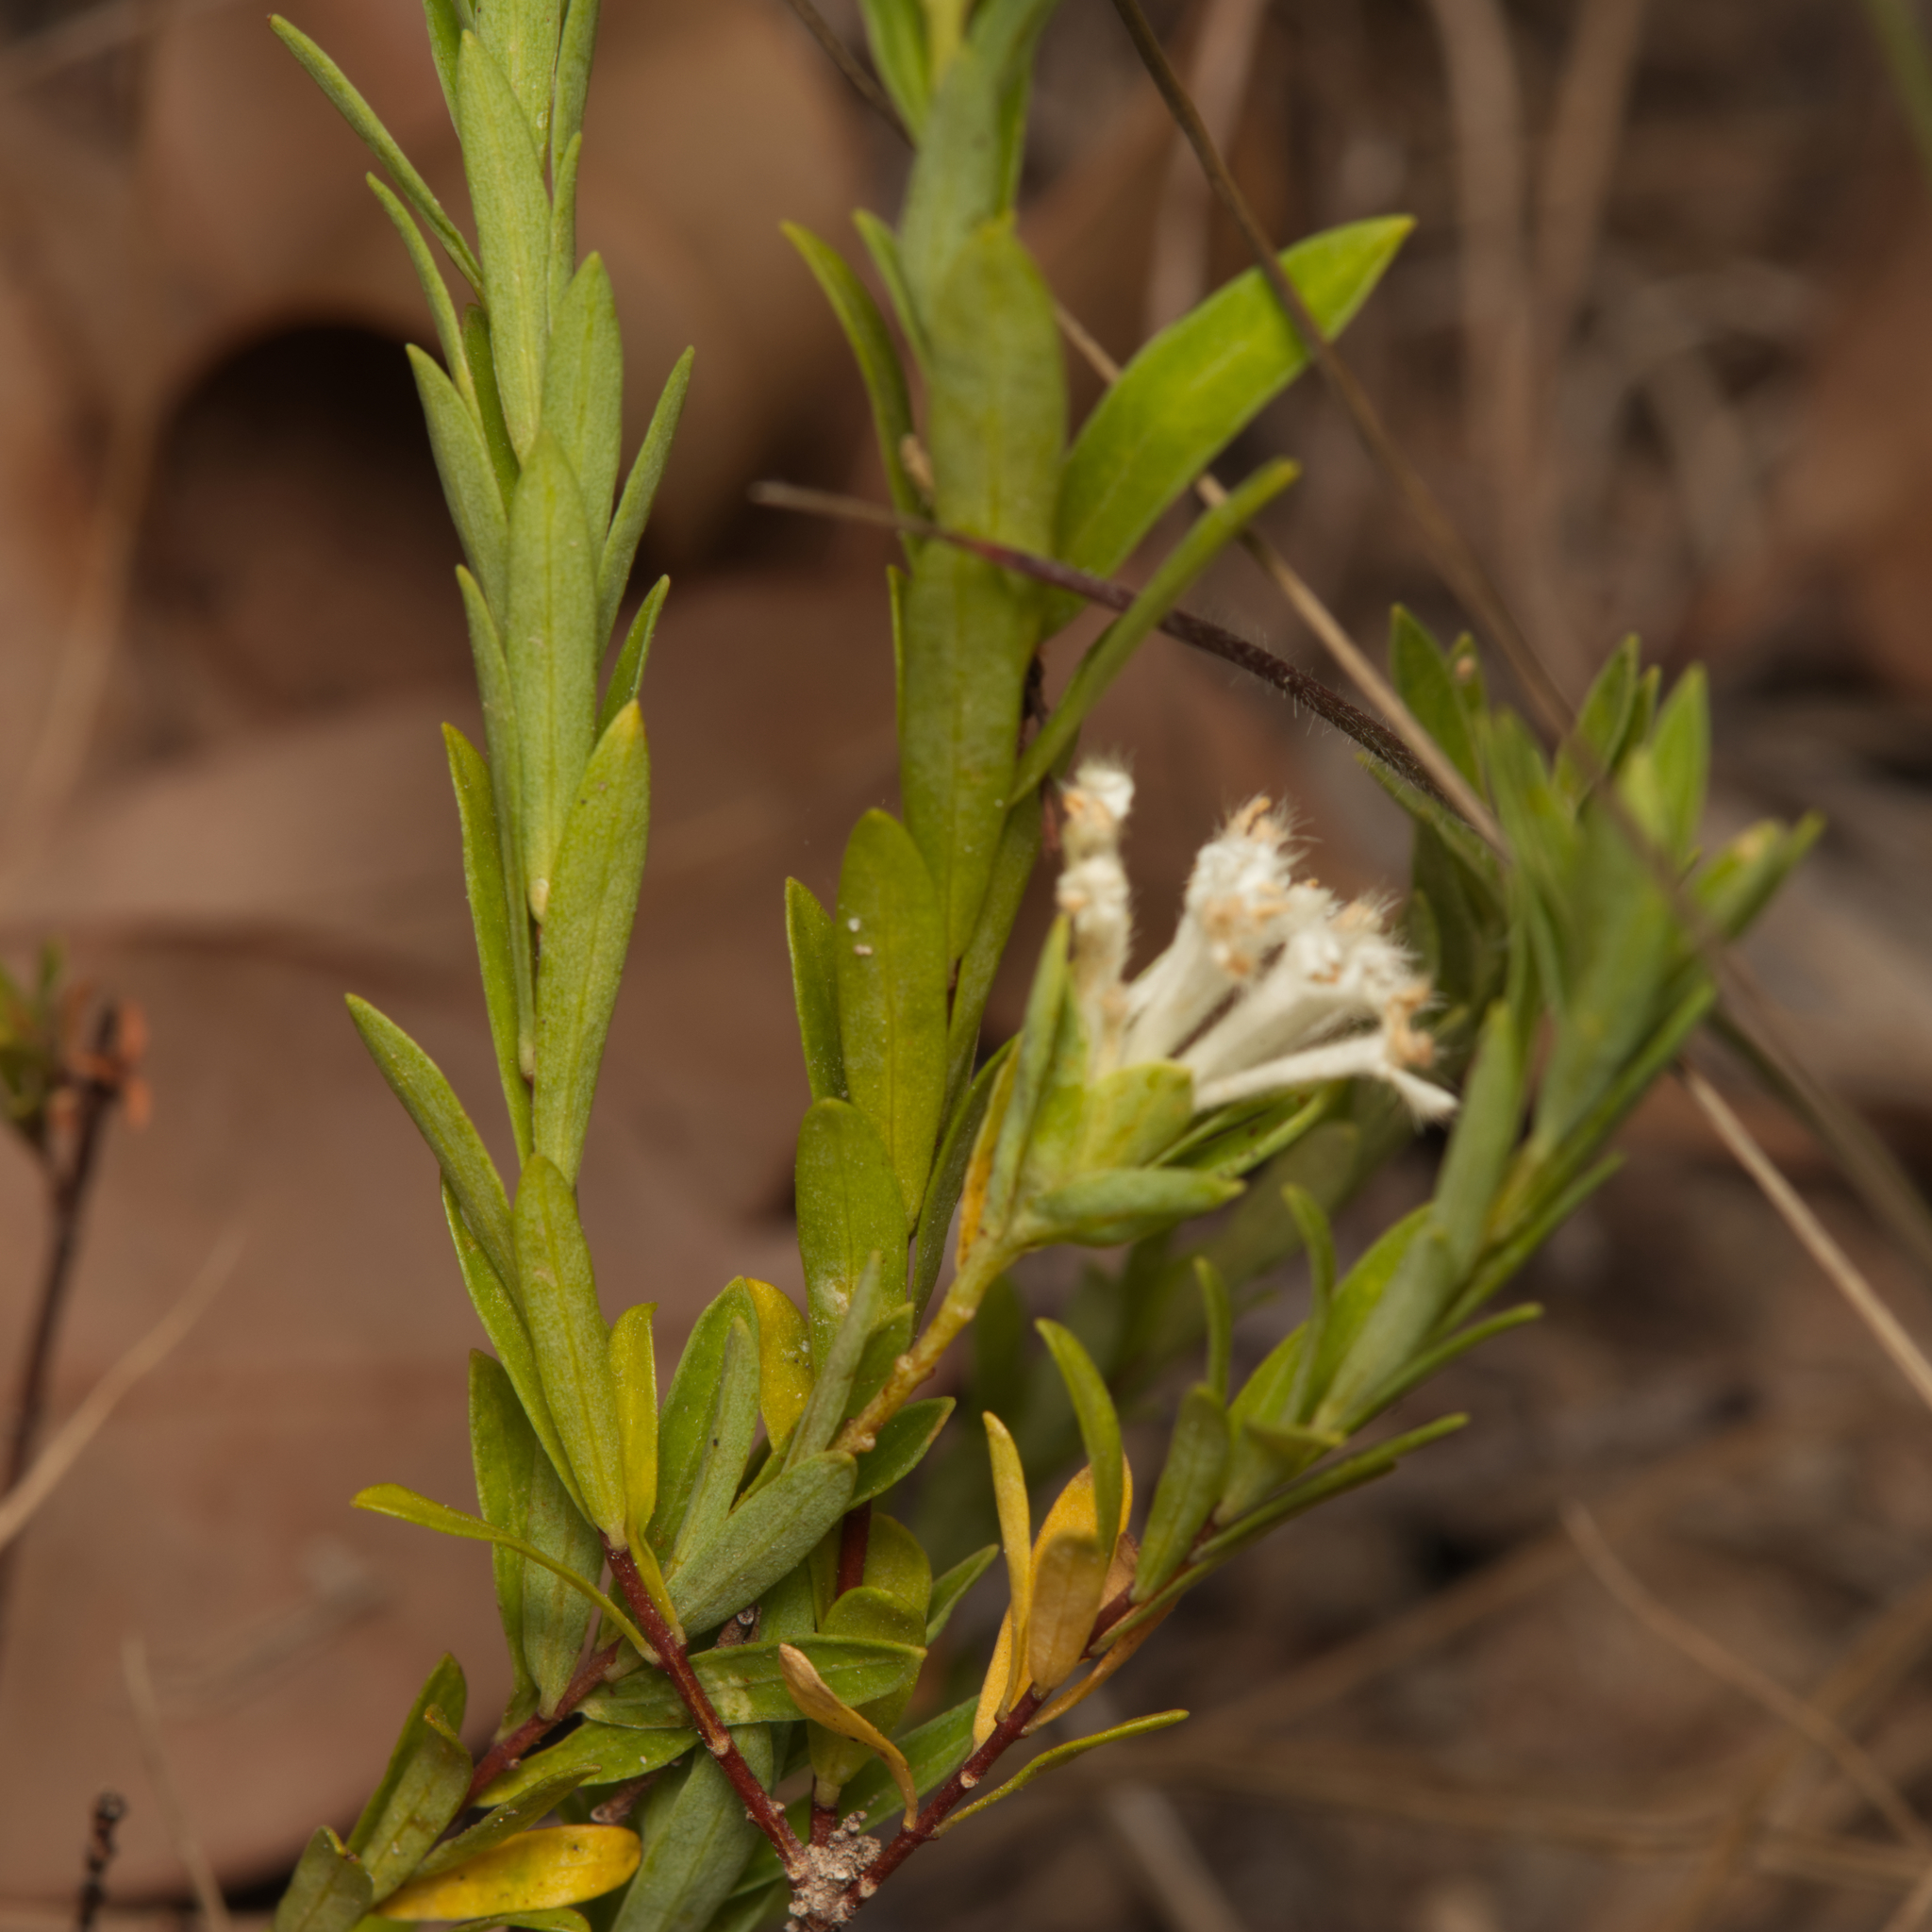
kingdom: Plantae
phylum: Tracheophyta
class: Magnoliopsida
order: Malvales
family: Thymelaeaceae
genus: Pimelea
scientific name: Pimelea linifolia
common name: Queen-of-the-bush
